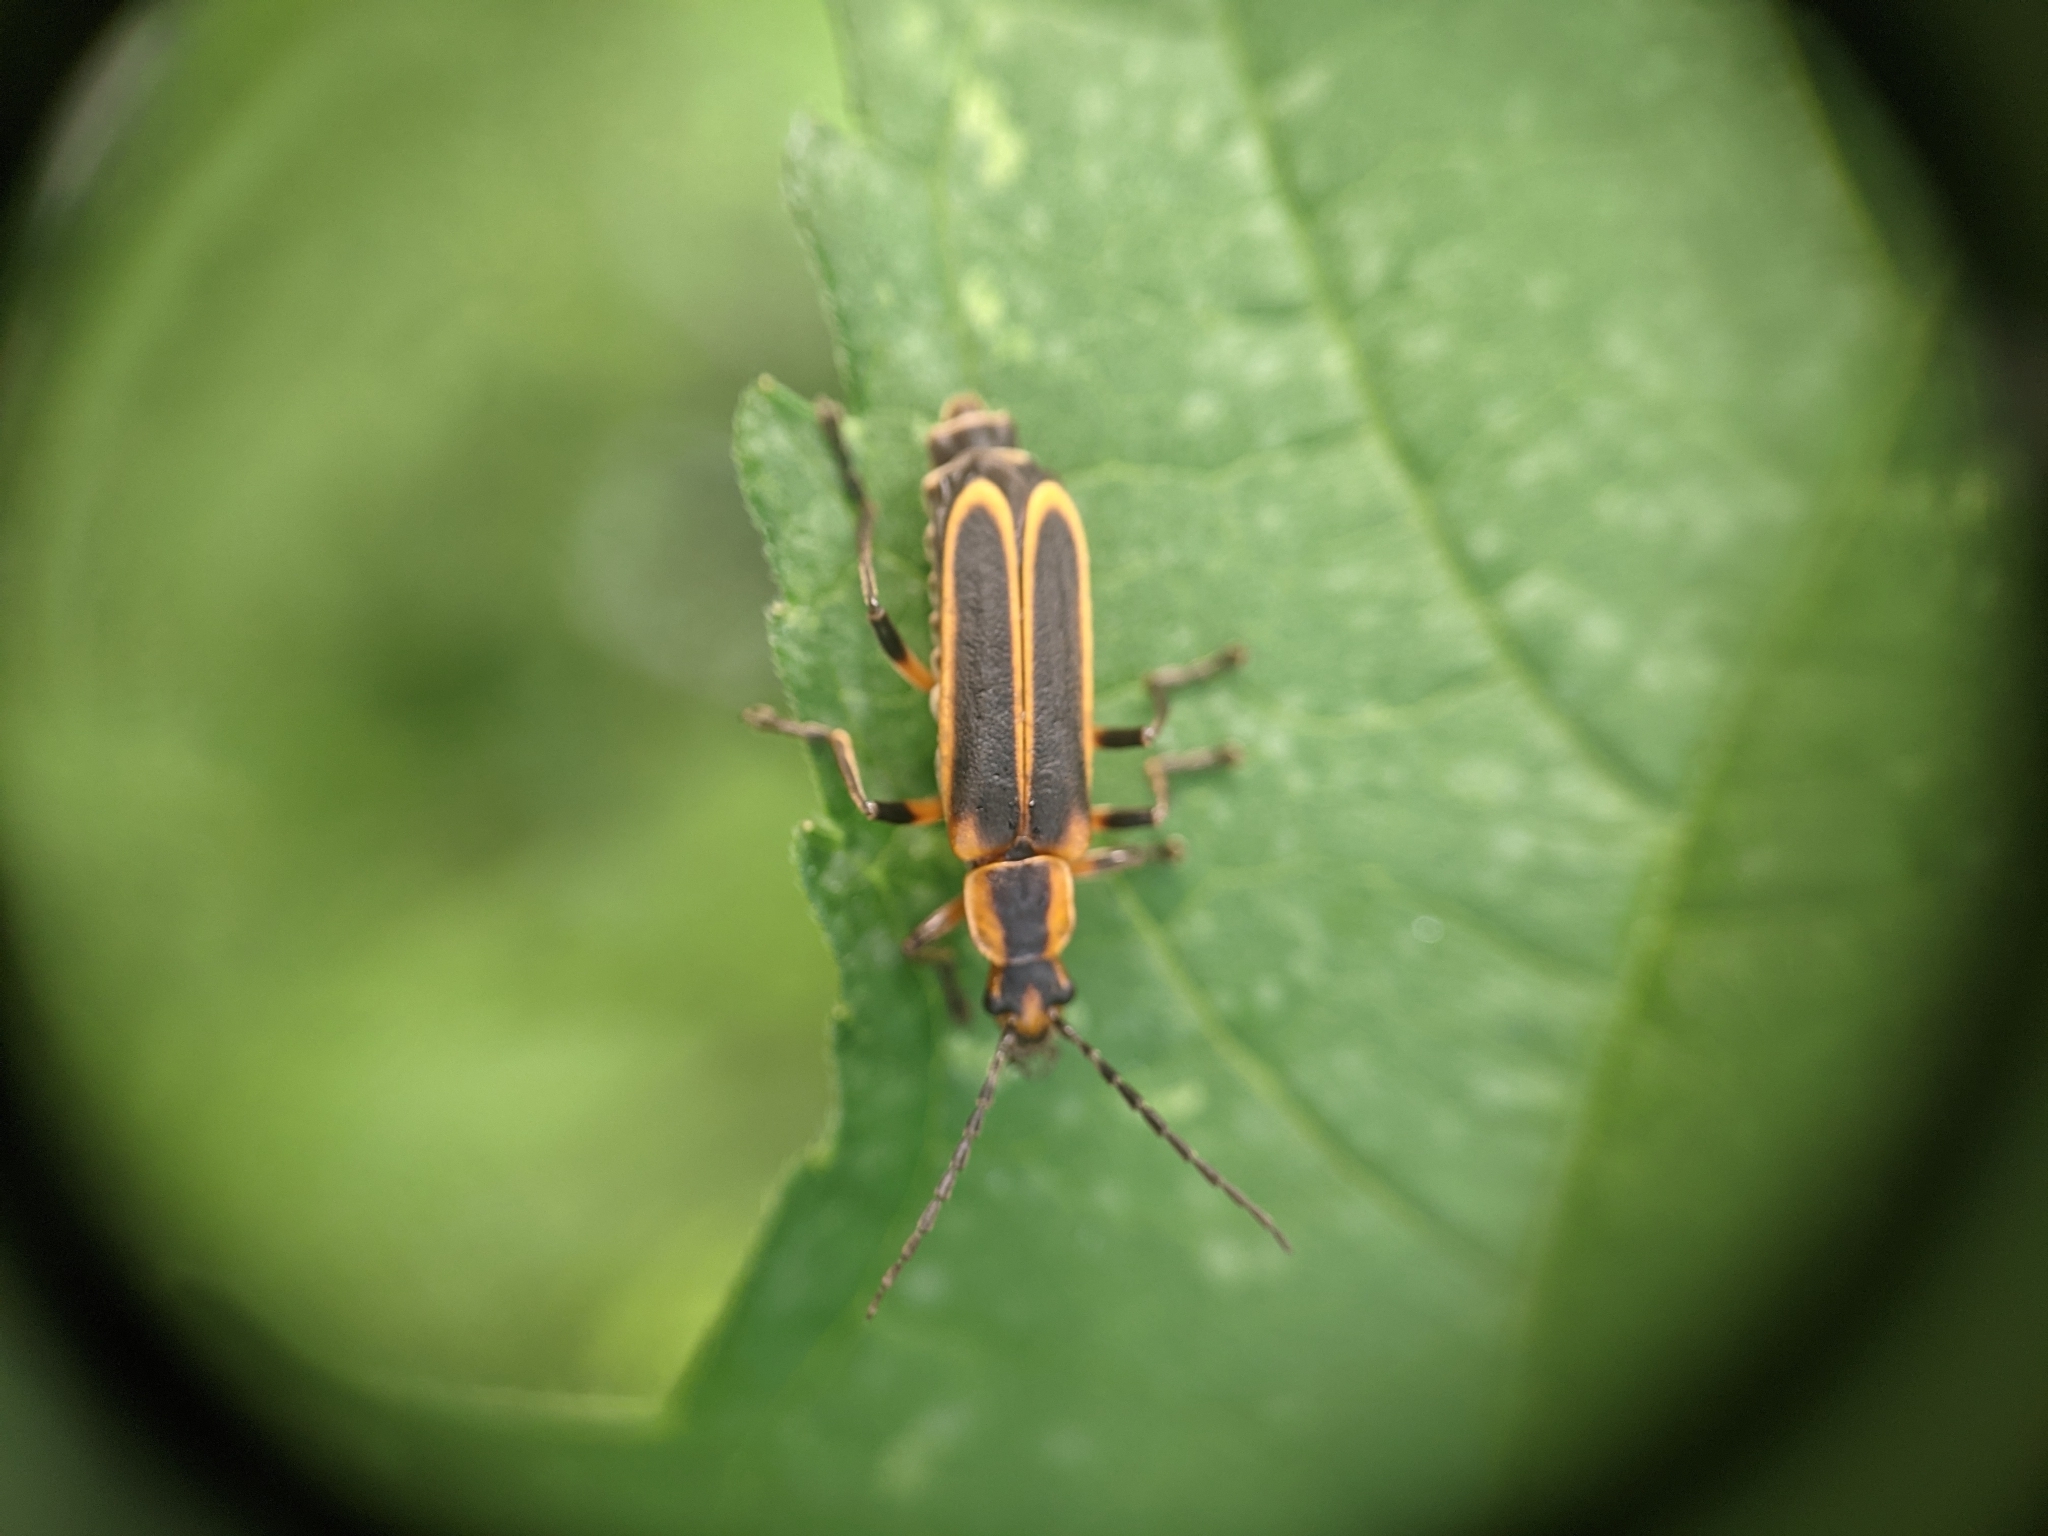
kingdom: Animalia
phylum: Arthropoda
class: Insecta
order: Coleoptera
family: Cantharidae
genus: Chauliognathus
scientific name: Chauliognathus marginatus
